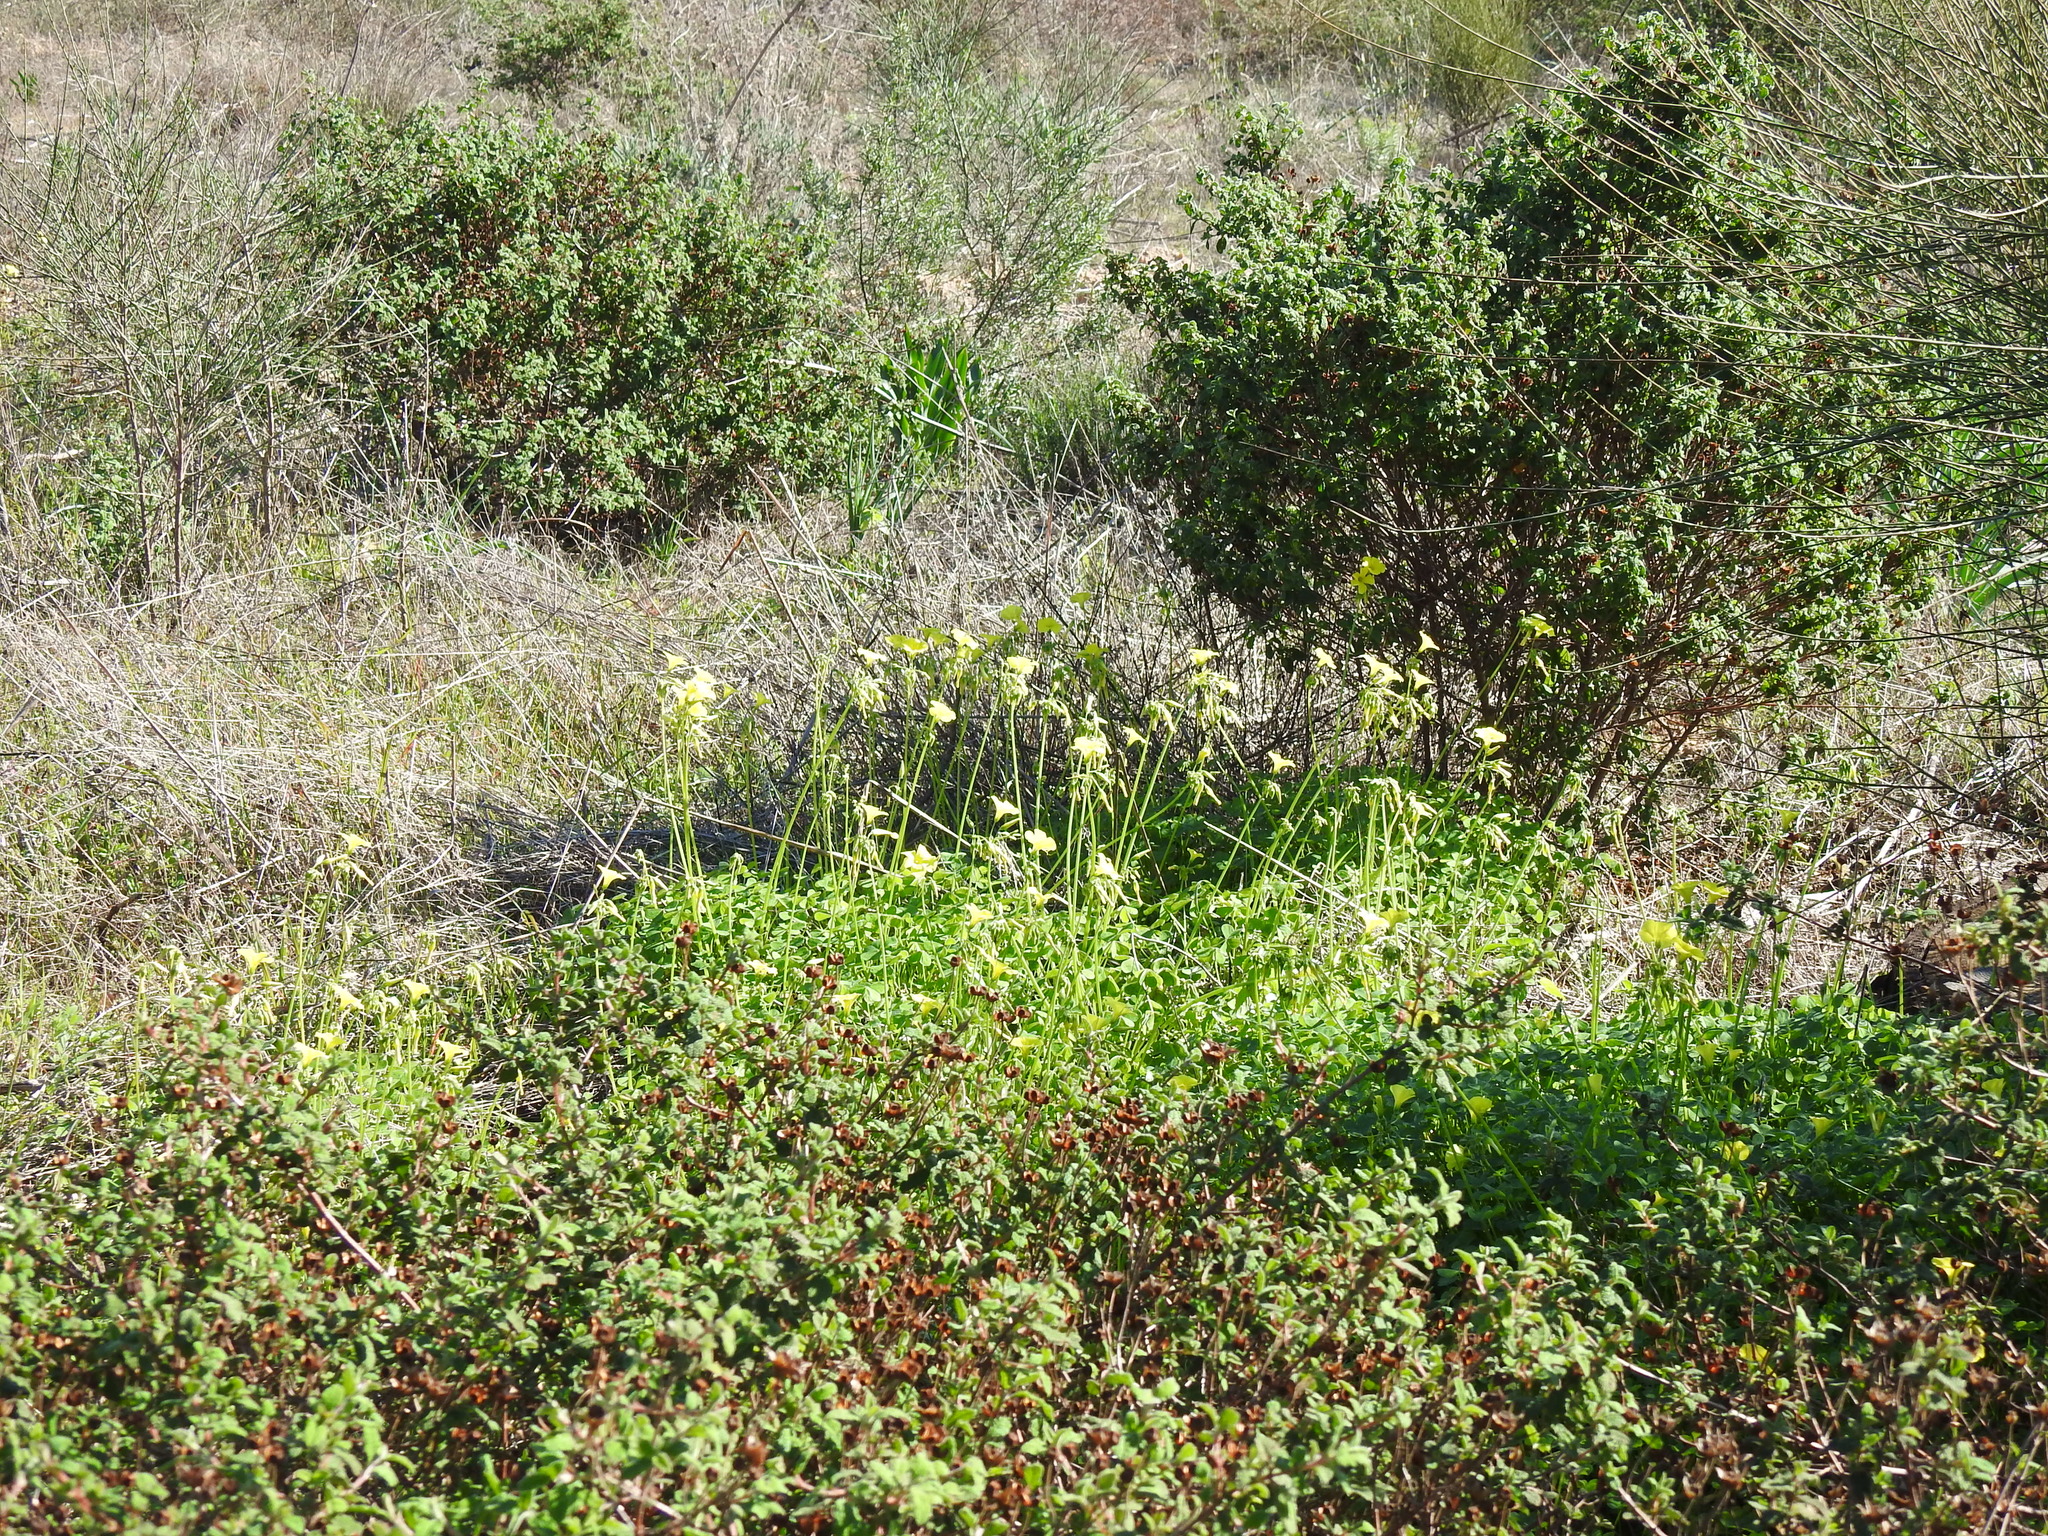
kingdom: Plantae
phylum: Tracheophyta
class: Magnoliopsida
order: Oxalidales
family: Oxalidaceae
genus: Oxalis
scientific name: Oxalis pes-caprae
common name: Bermuda-buttercup
